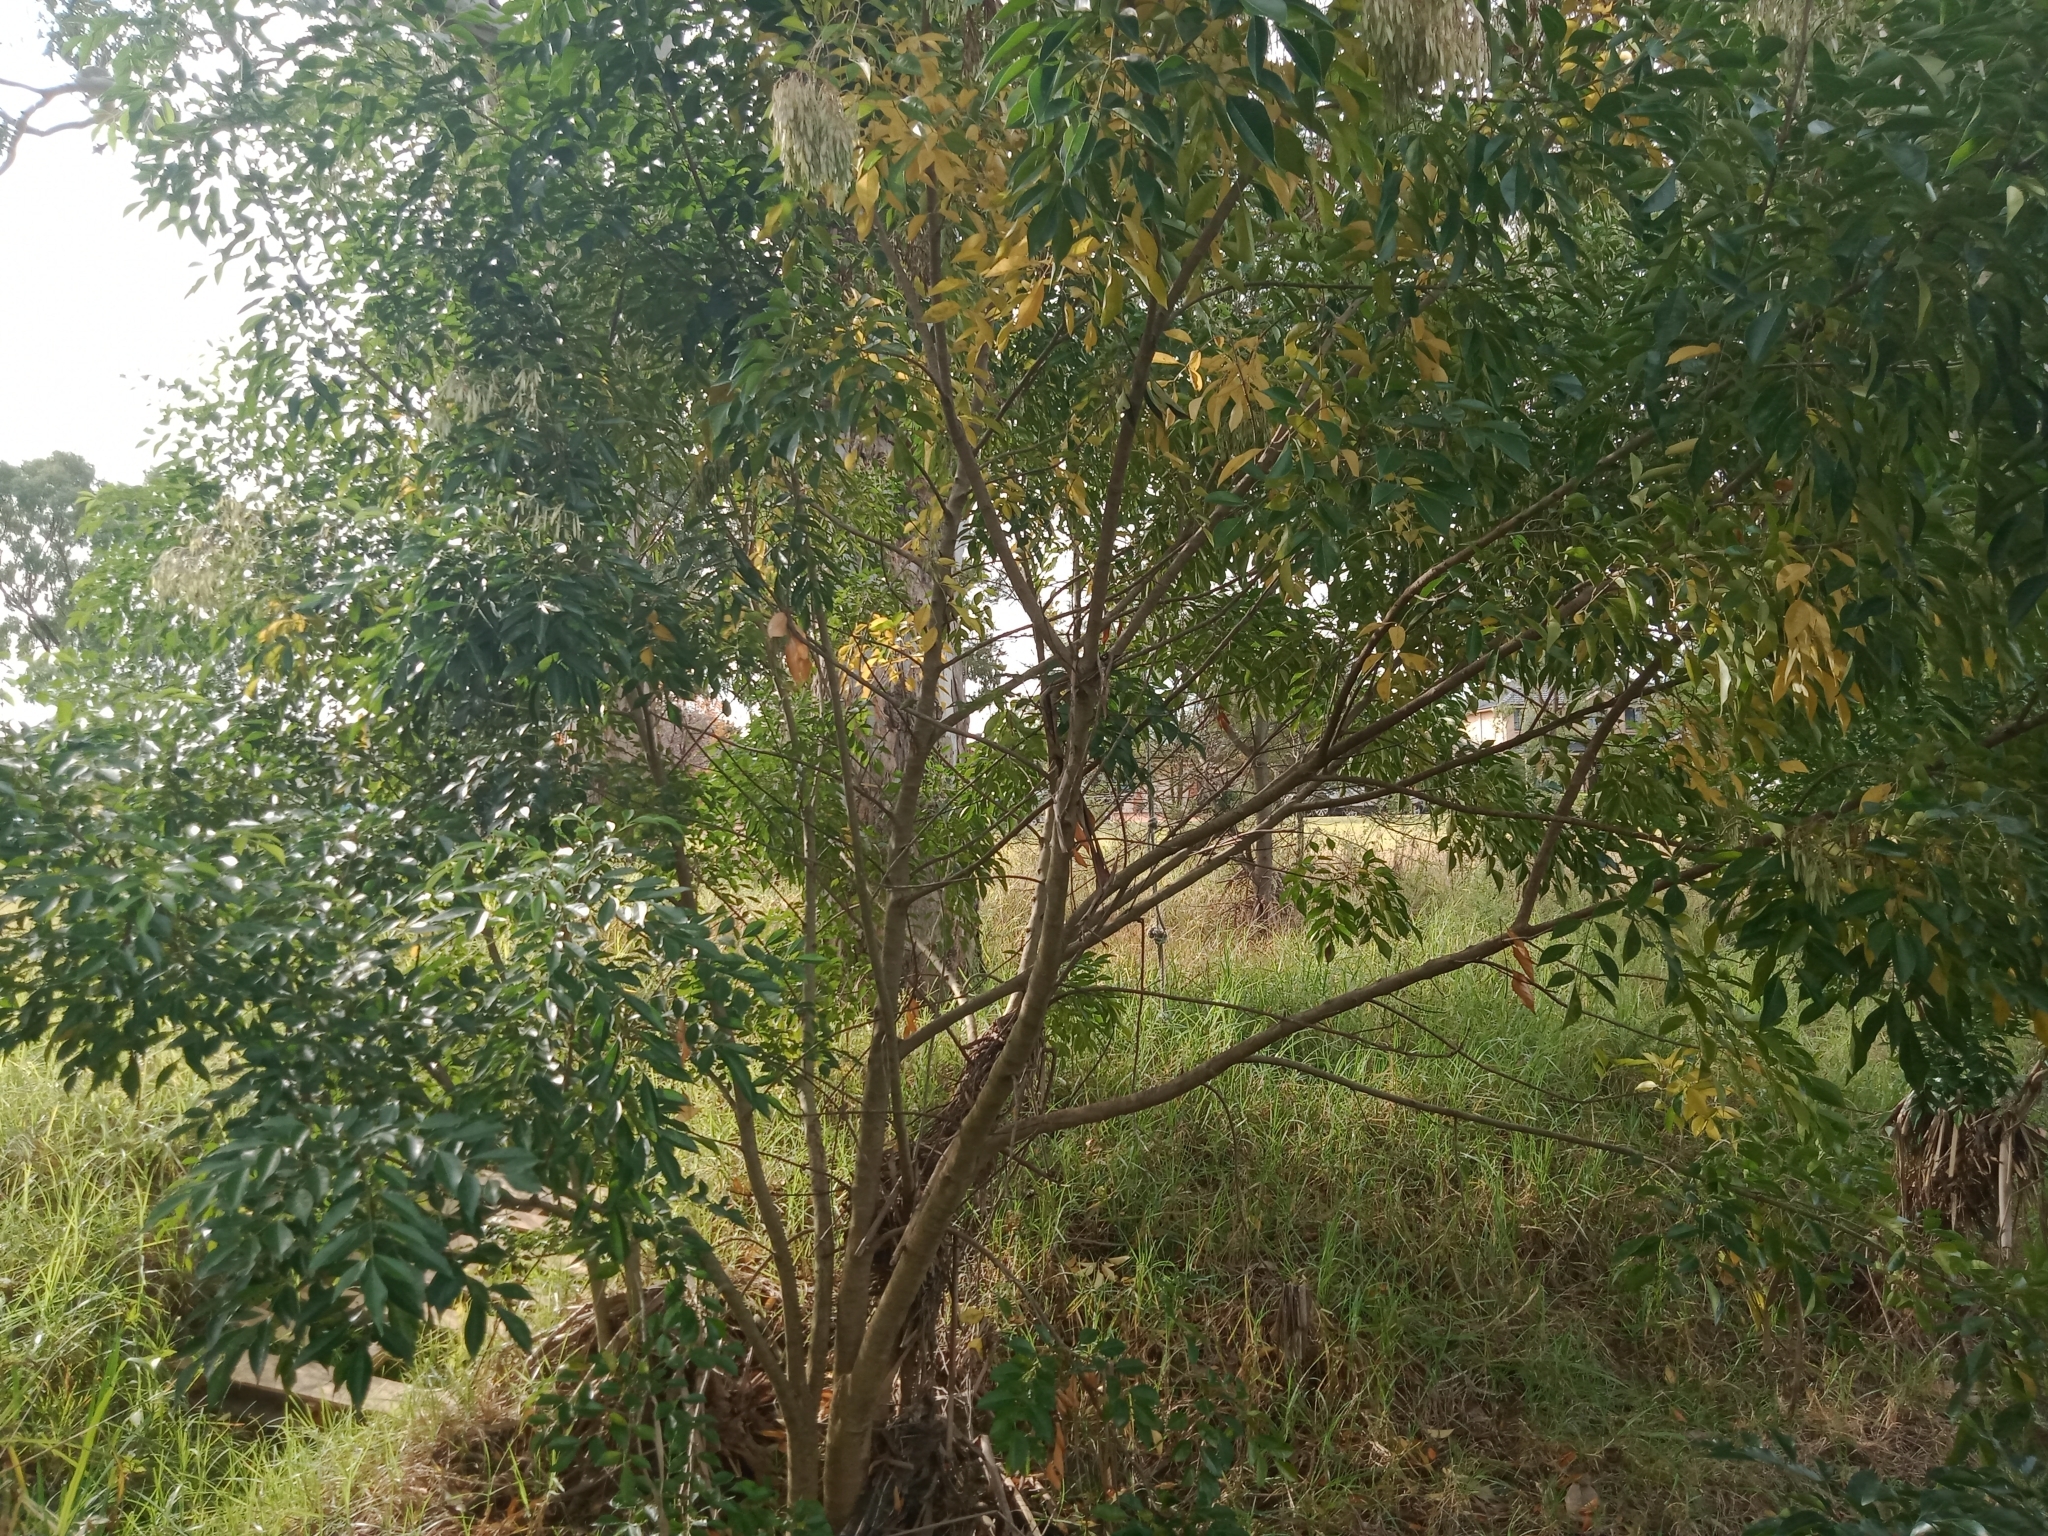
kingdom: Plantae
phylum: Tracheophyta
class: Magnoliopsida
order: Lamiales
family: Oleaceae
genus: Fraxinus
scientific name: Fraxinus griffithii
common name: Himalayan ash
